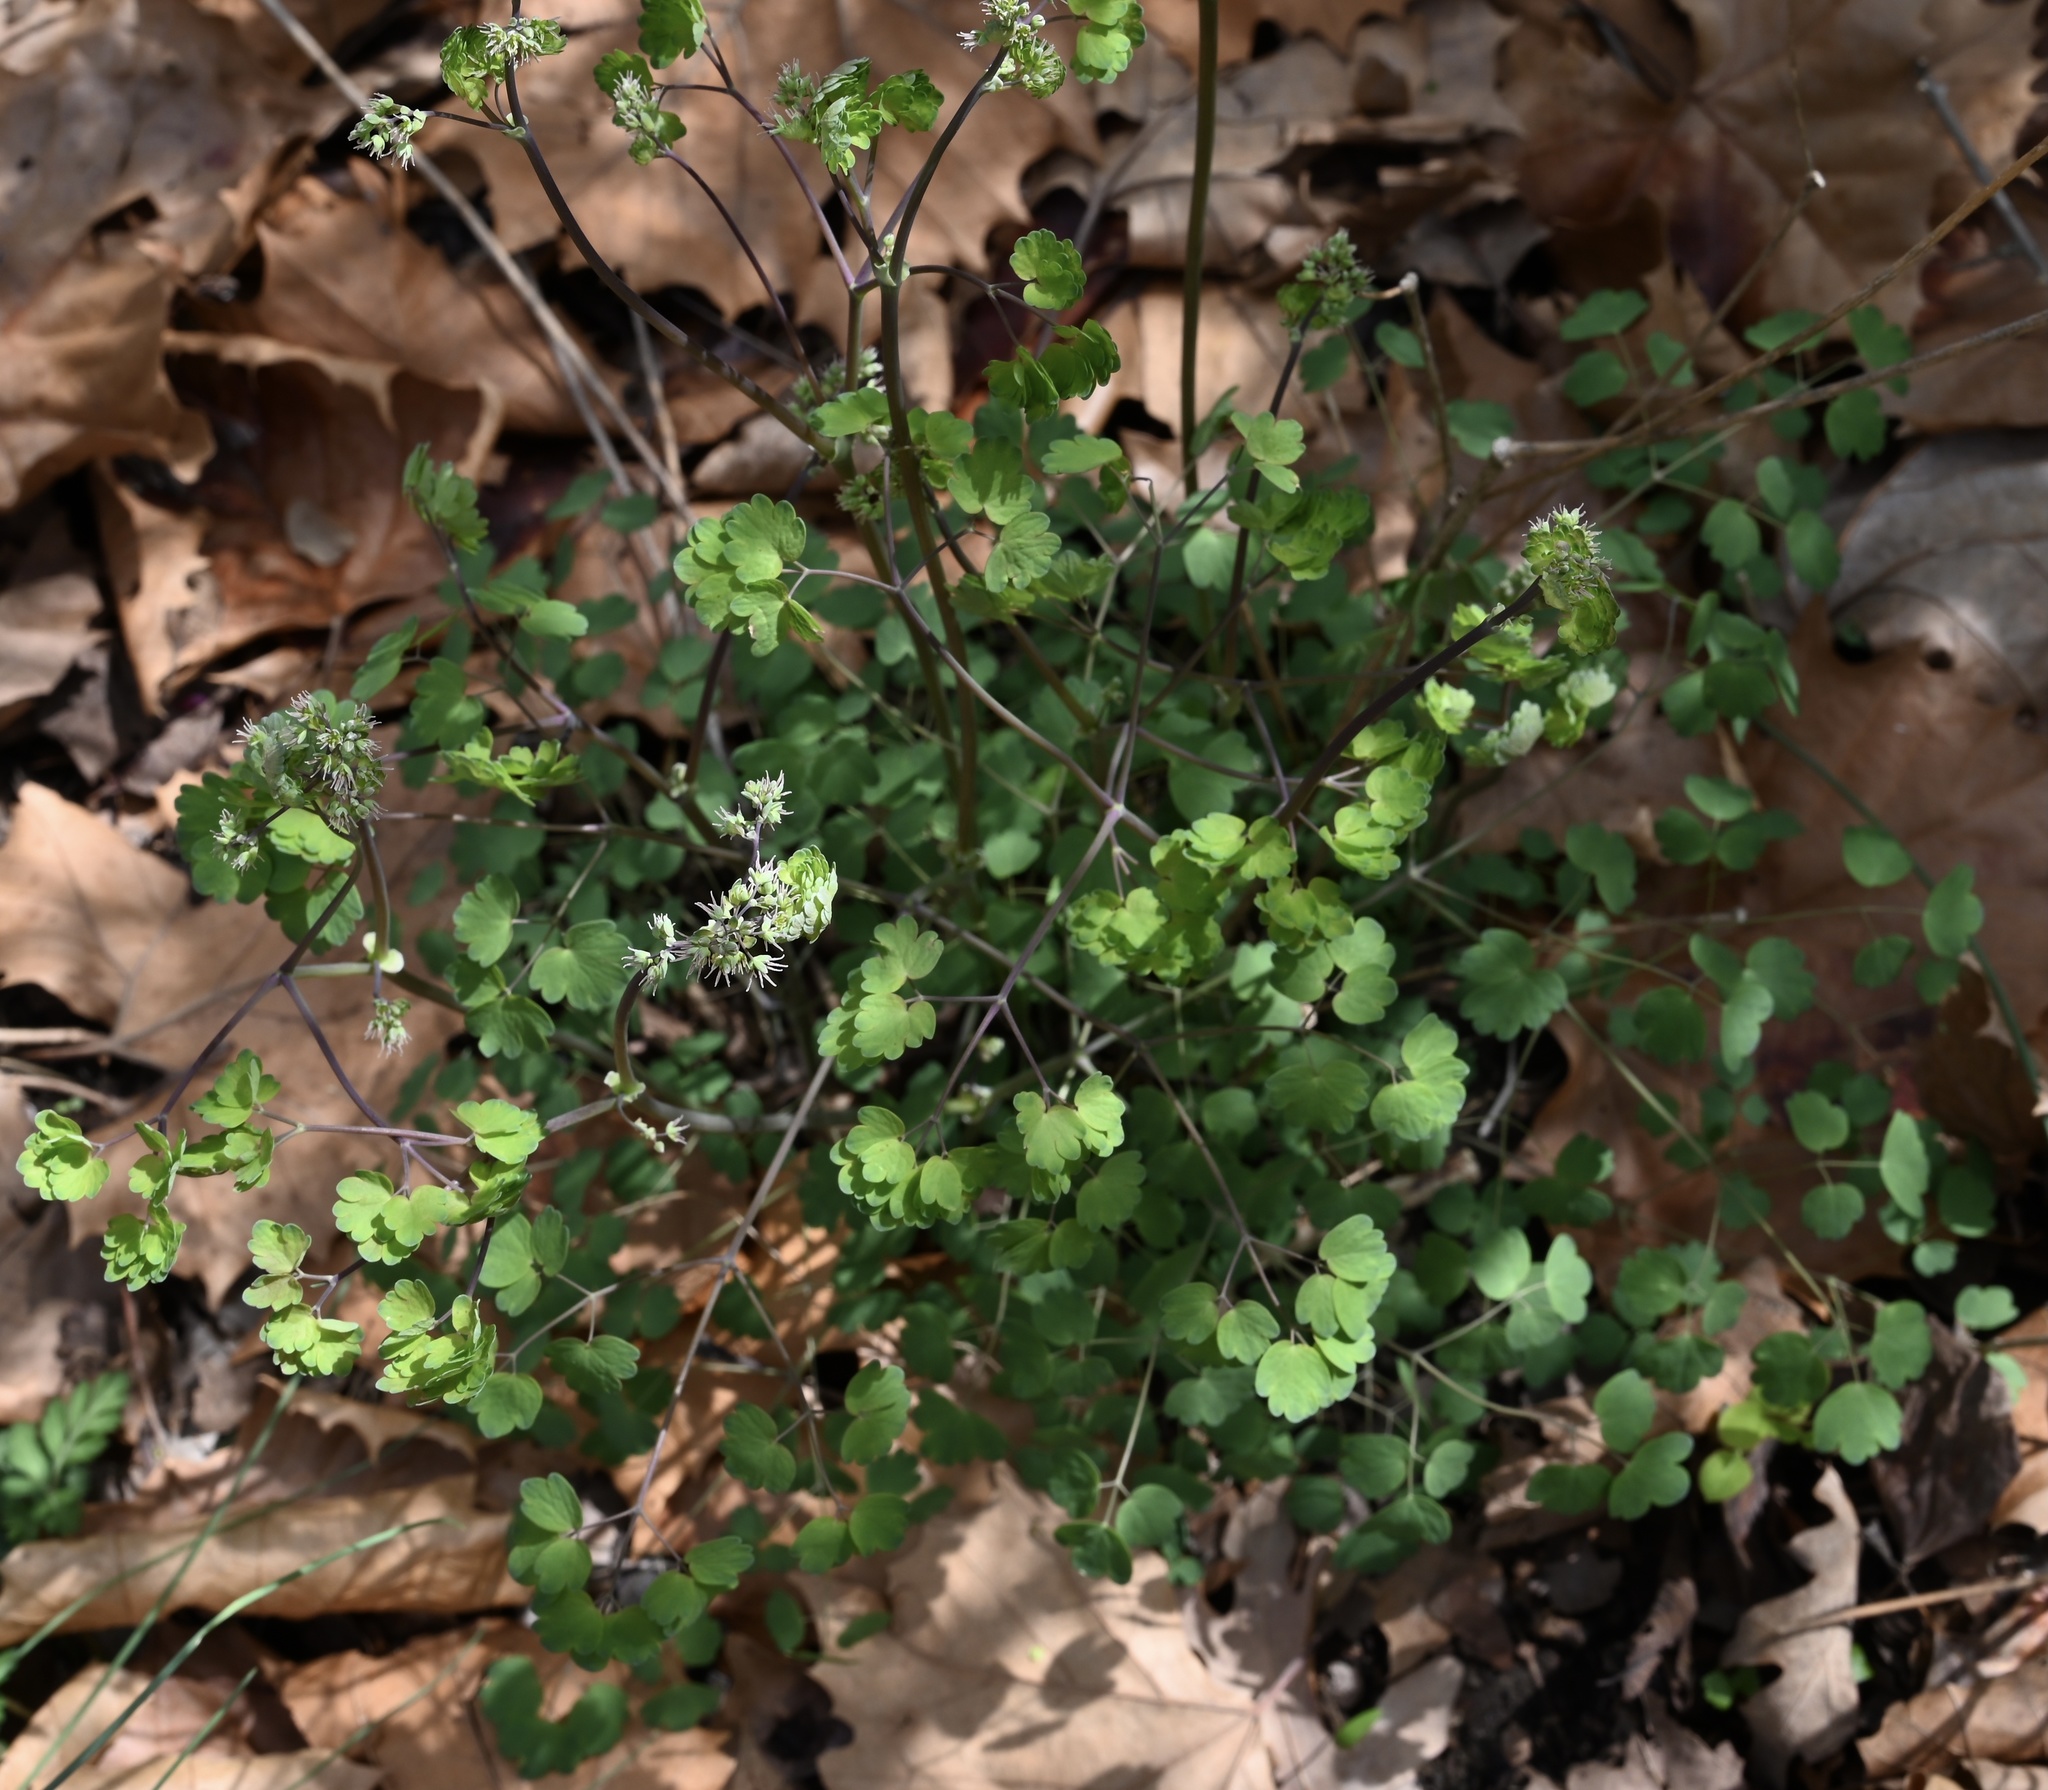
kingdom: Plantae
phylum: Tracheophyta
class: Magnoliopsida
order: Ranunculales
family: Ranunculaceae
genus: Thalictrum
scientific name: Thalictrum dioicum
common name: Early meadow-rue
